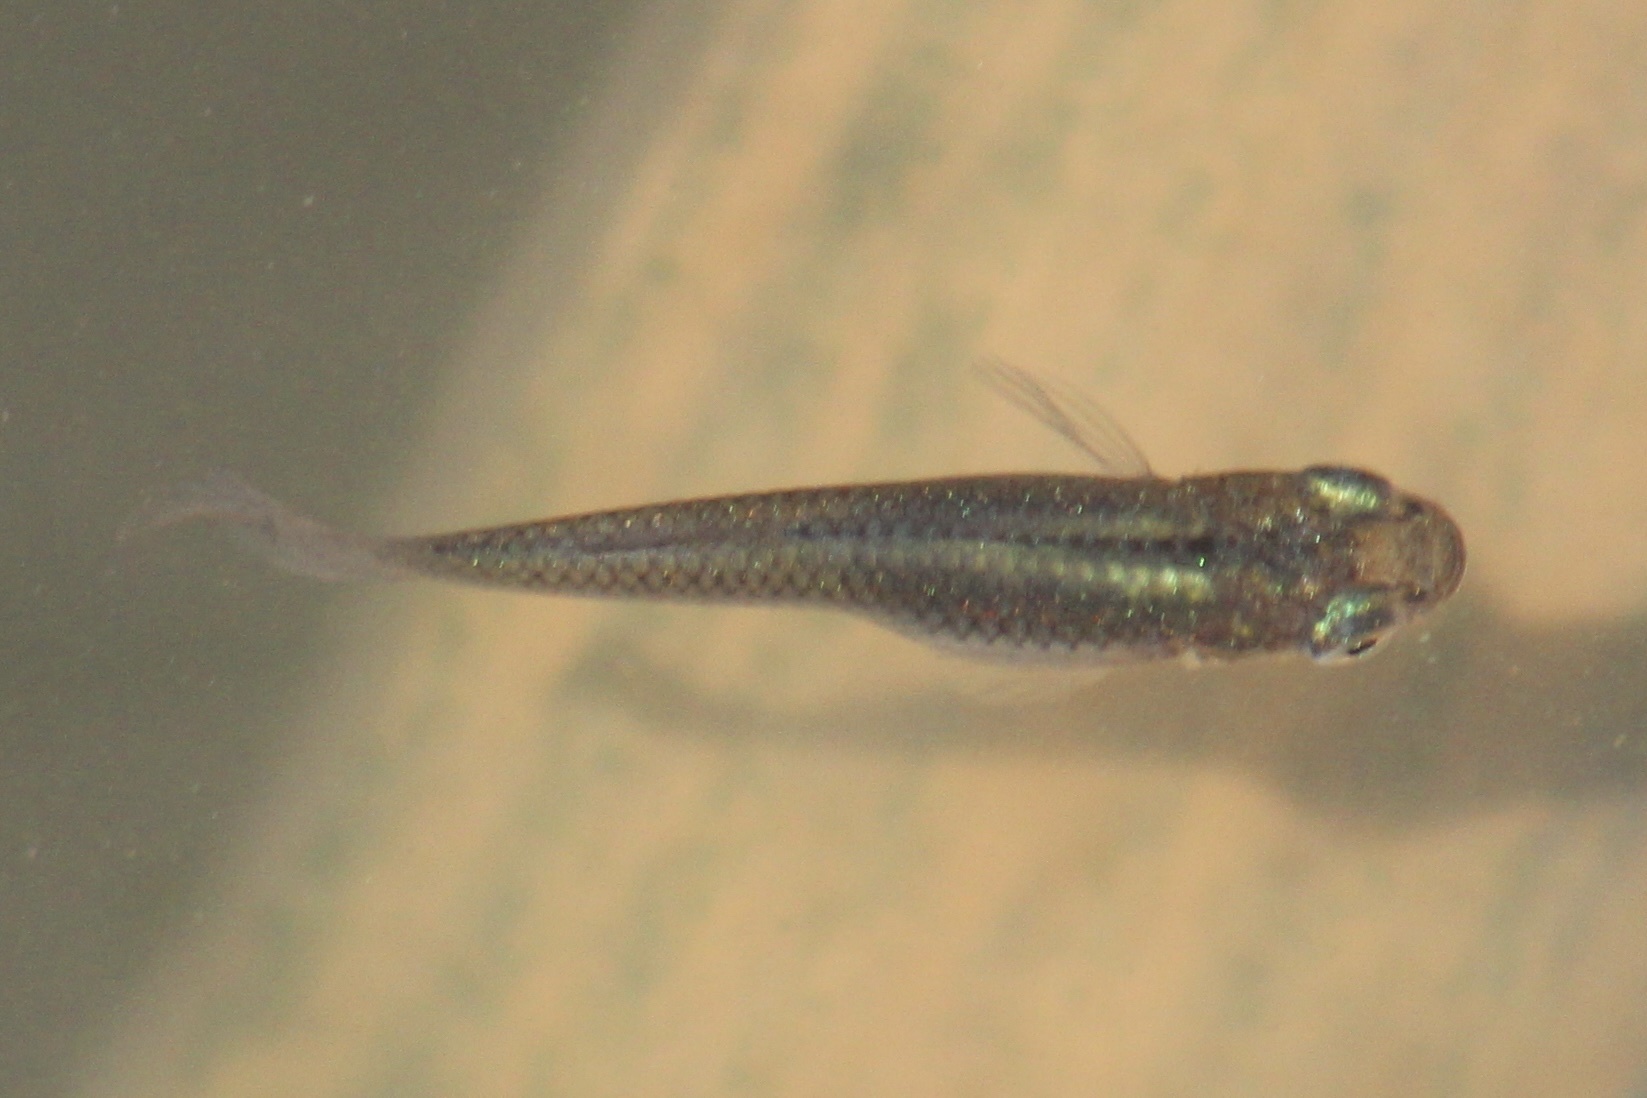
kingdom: Animalia
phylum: Chordata
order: Cyprinodontiformes
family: Poeciliidae
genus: Gambusia
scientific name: Gambusia holbrooki
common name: Eastern mosquitofish
